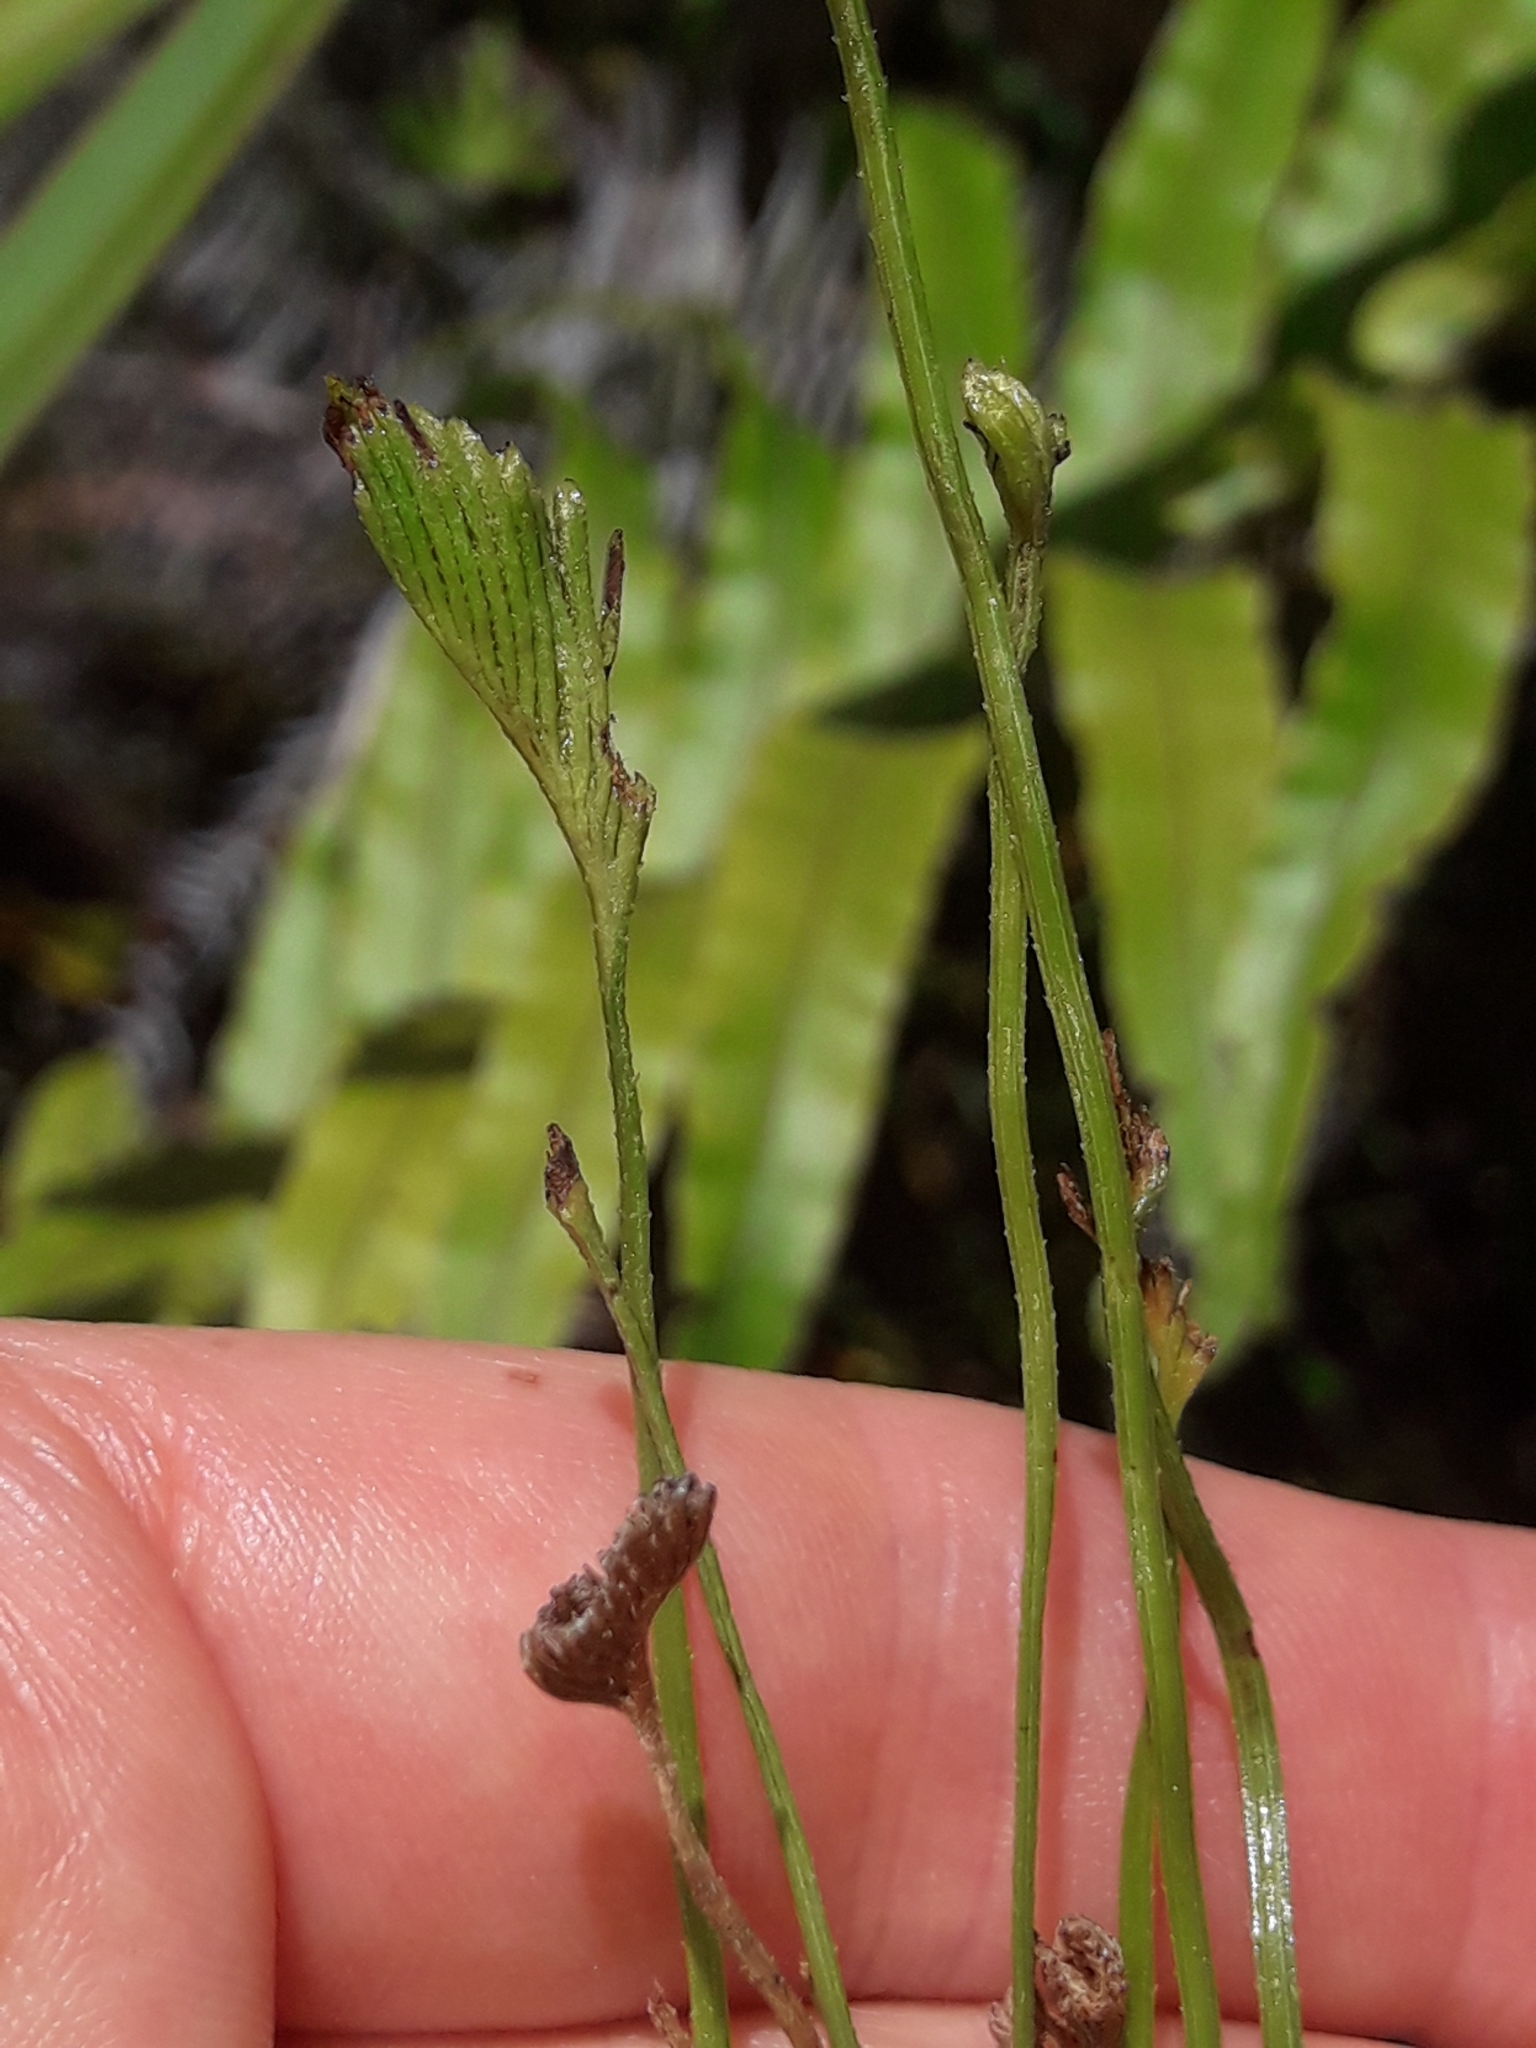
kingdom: Plantae
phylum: Tracheophyta
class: Polypodiopsida
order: Schizaeales
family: Schizaeaceae
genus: Schizaea
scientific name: Schizaea bifida
